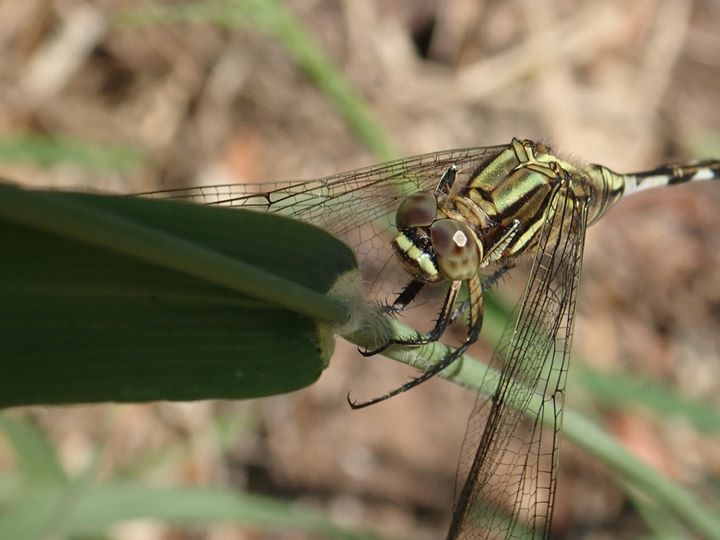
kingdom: Animalia
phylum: Arthropoda
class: Insecta
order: Odonata
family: Libellulidae
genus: Orthetrum
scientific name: Orthetrum sabina
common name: Slender skimmer
